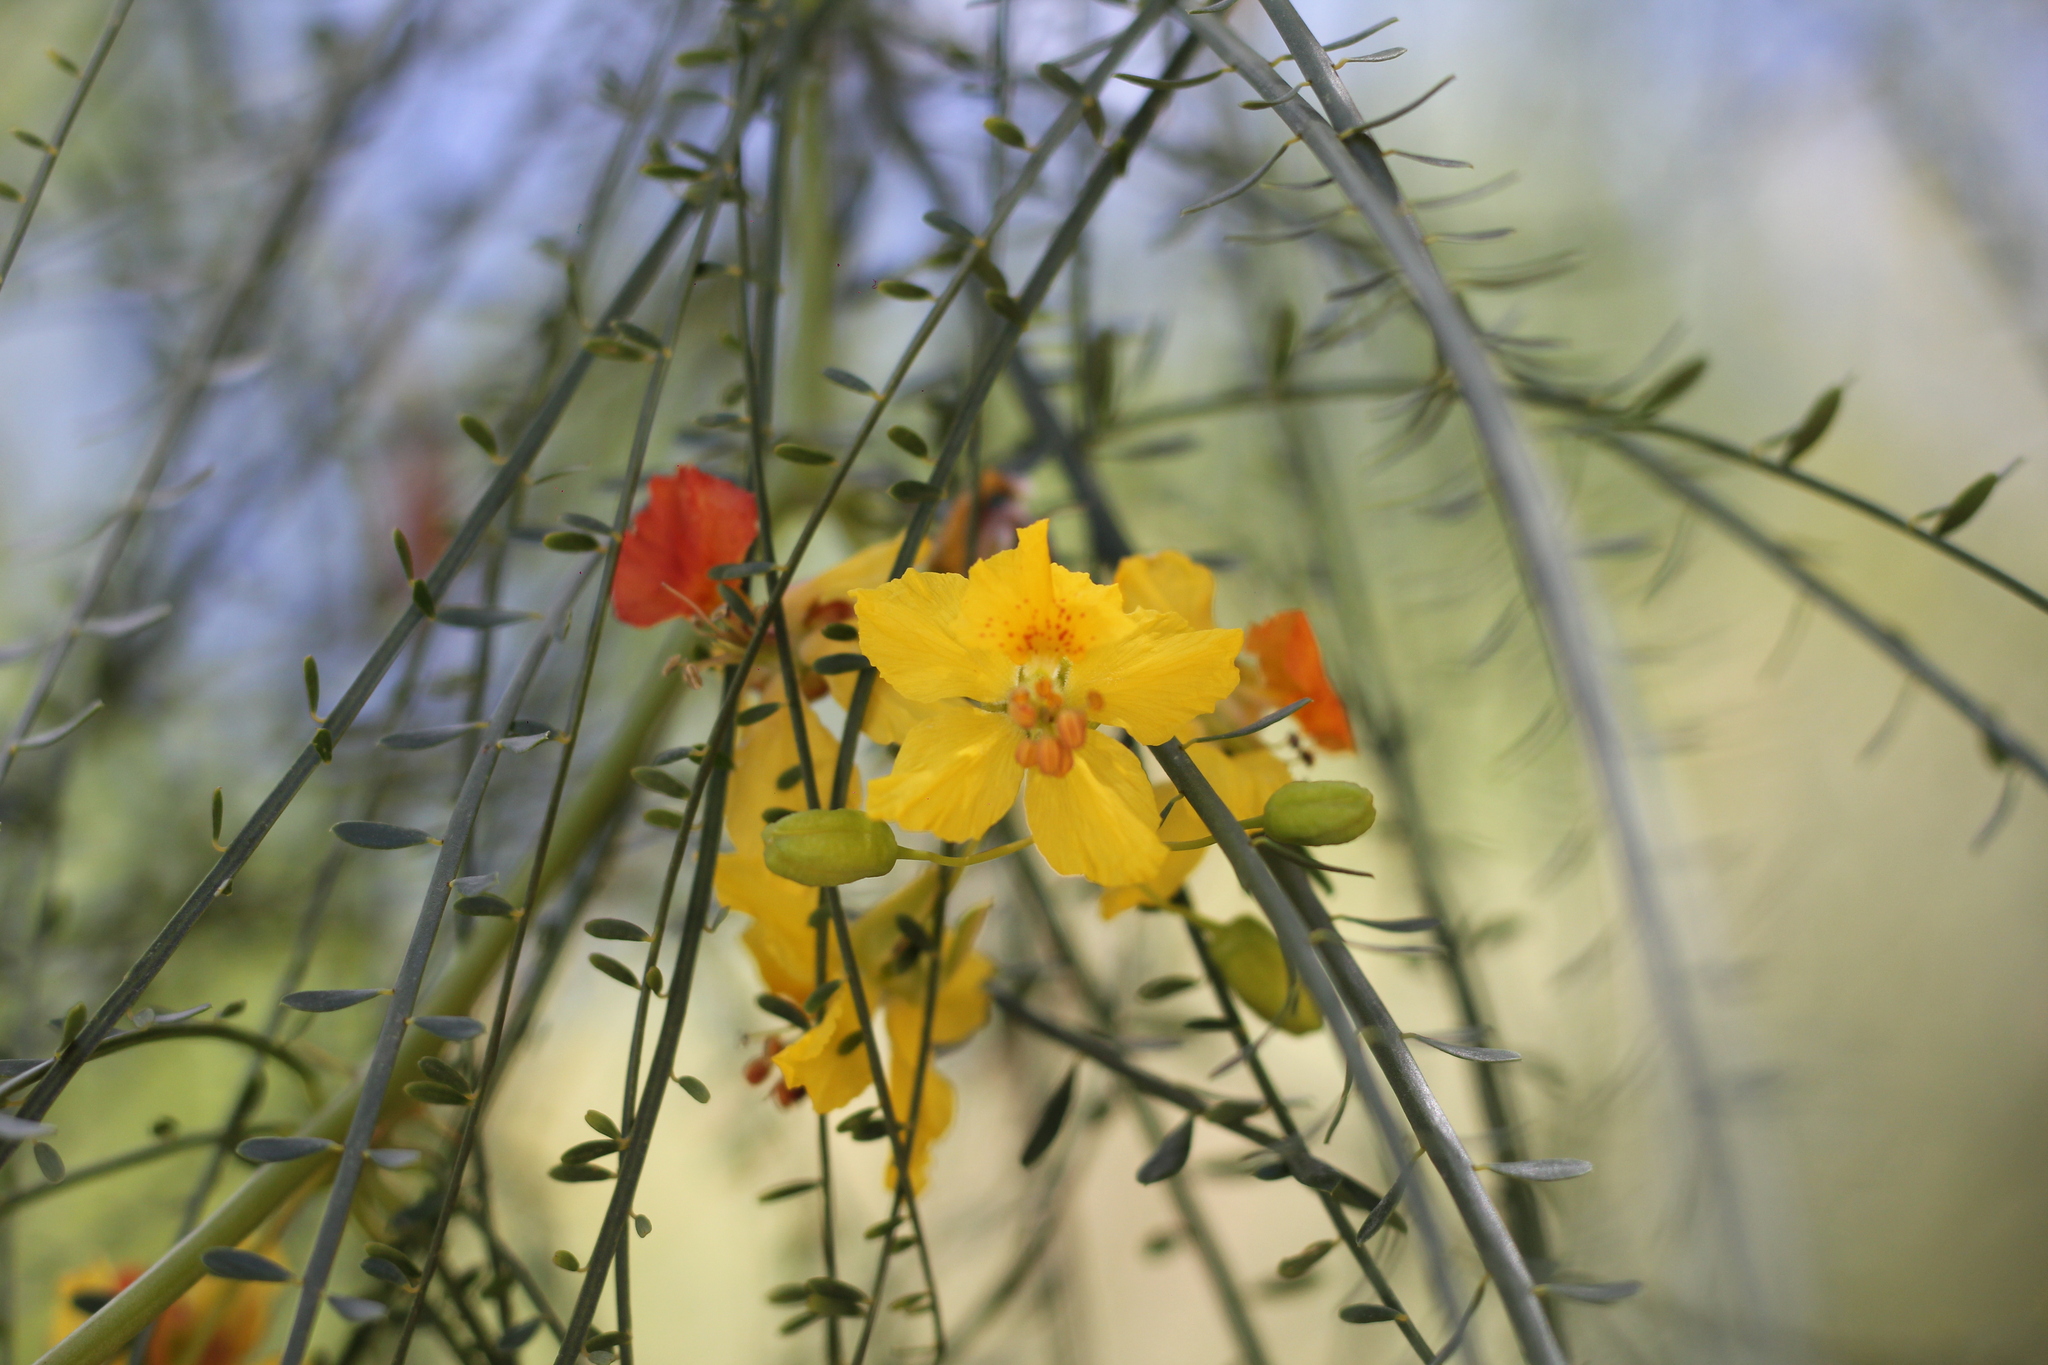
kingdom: Plantae
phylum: Tracheophyta
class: Magnoliopsida
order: Fabales
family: Fabaceae
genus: Parkinsonia
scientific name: Parkinsonia aculeata
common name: Jerusalem thorn
